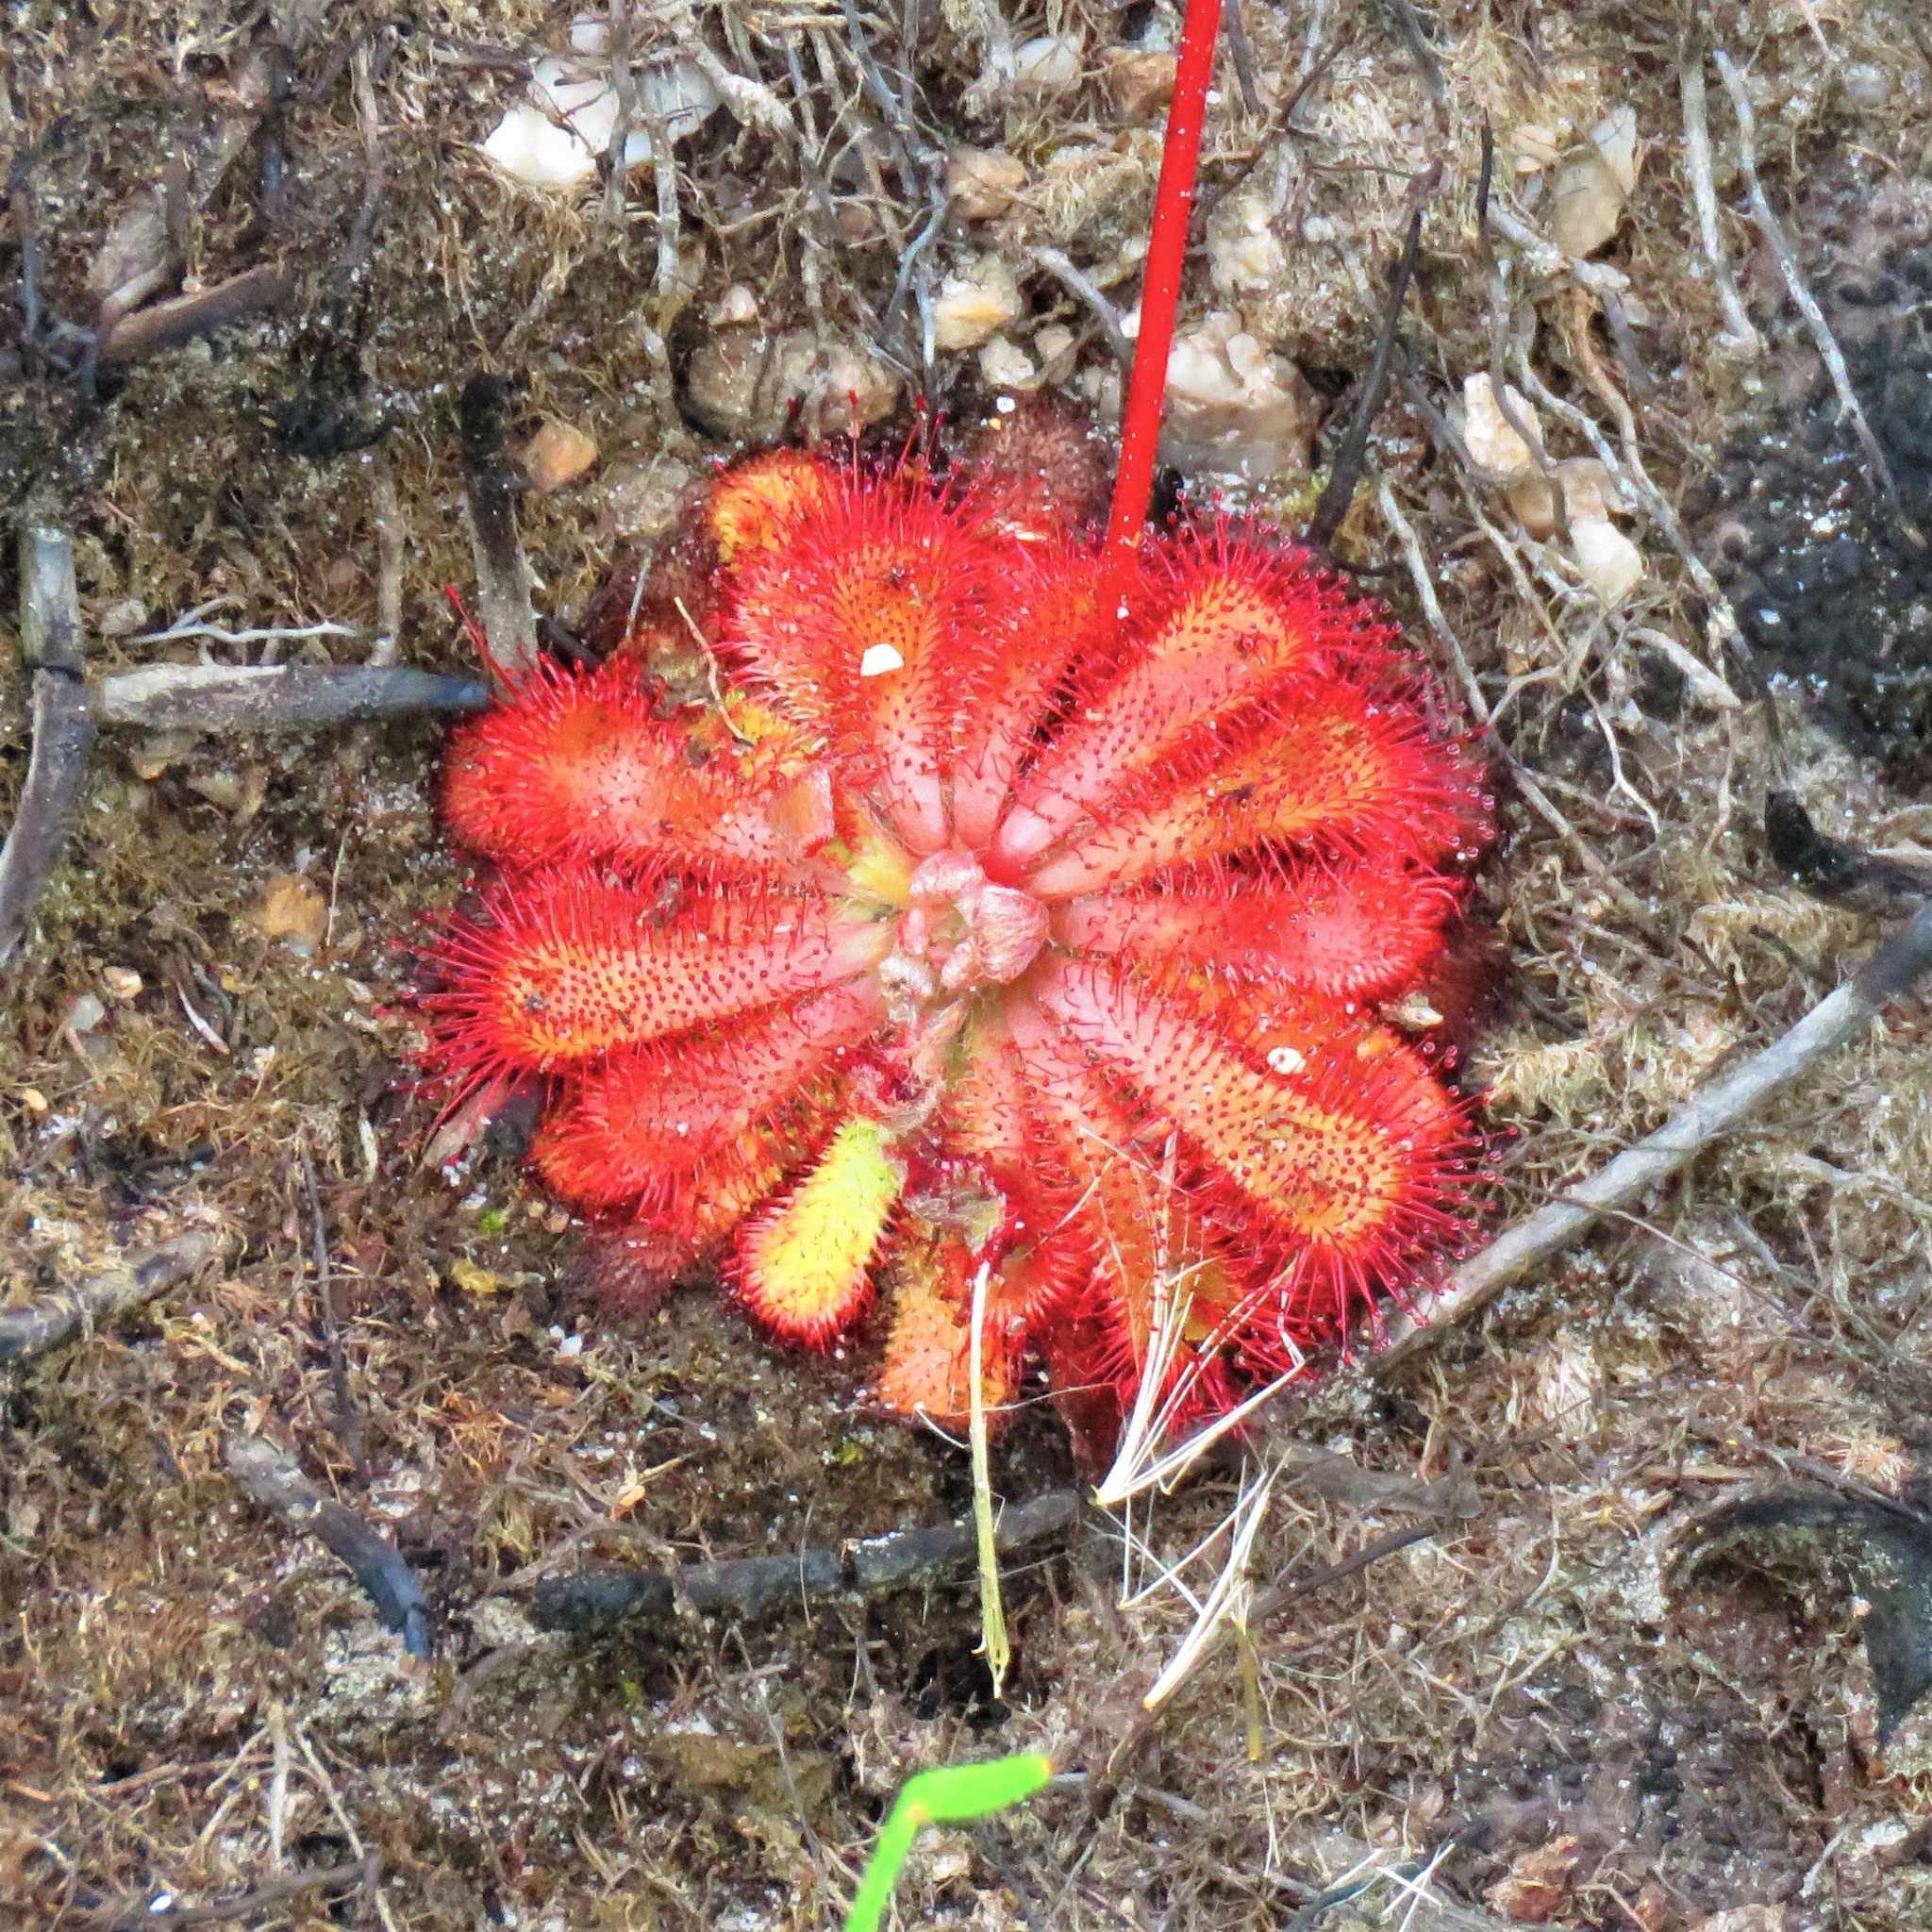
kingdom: Plantae
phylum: Tracheophyta
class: Magnoliopsida
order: Caryophyllales
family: Droseraceae
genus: Drosera
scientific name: Drosera aliciae
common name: Alice sundew
